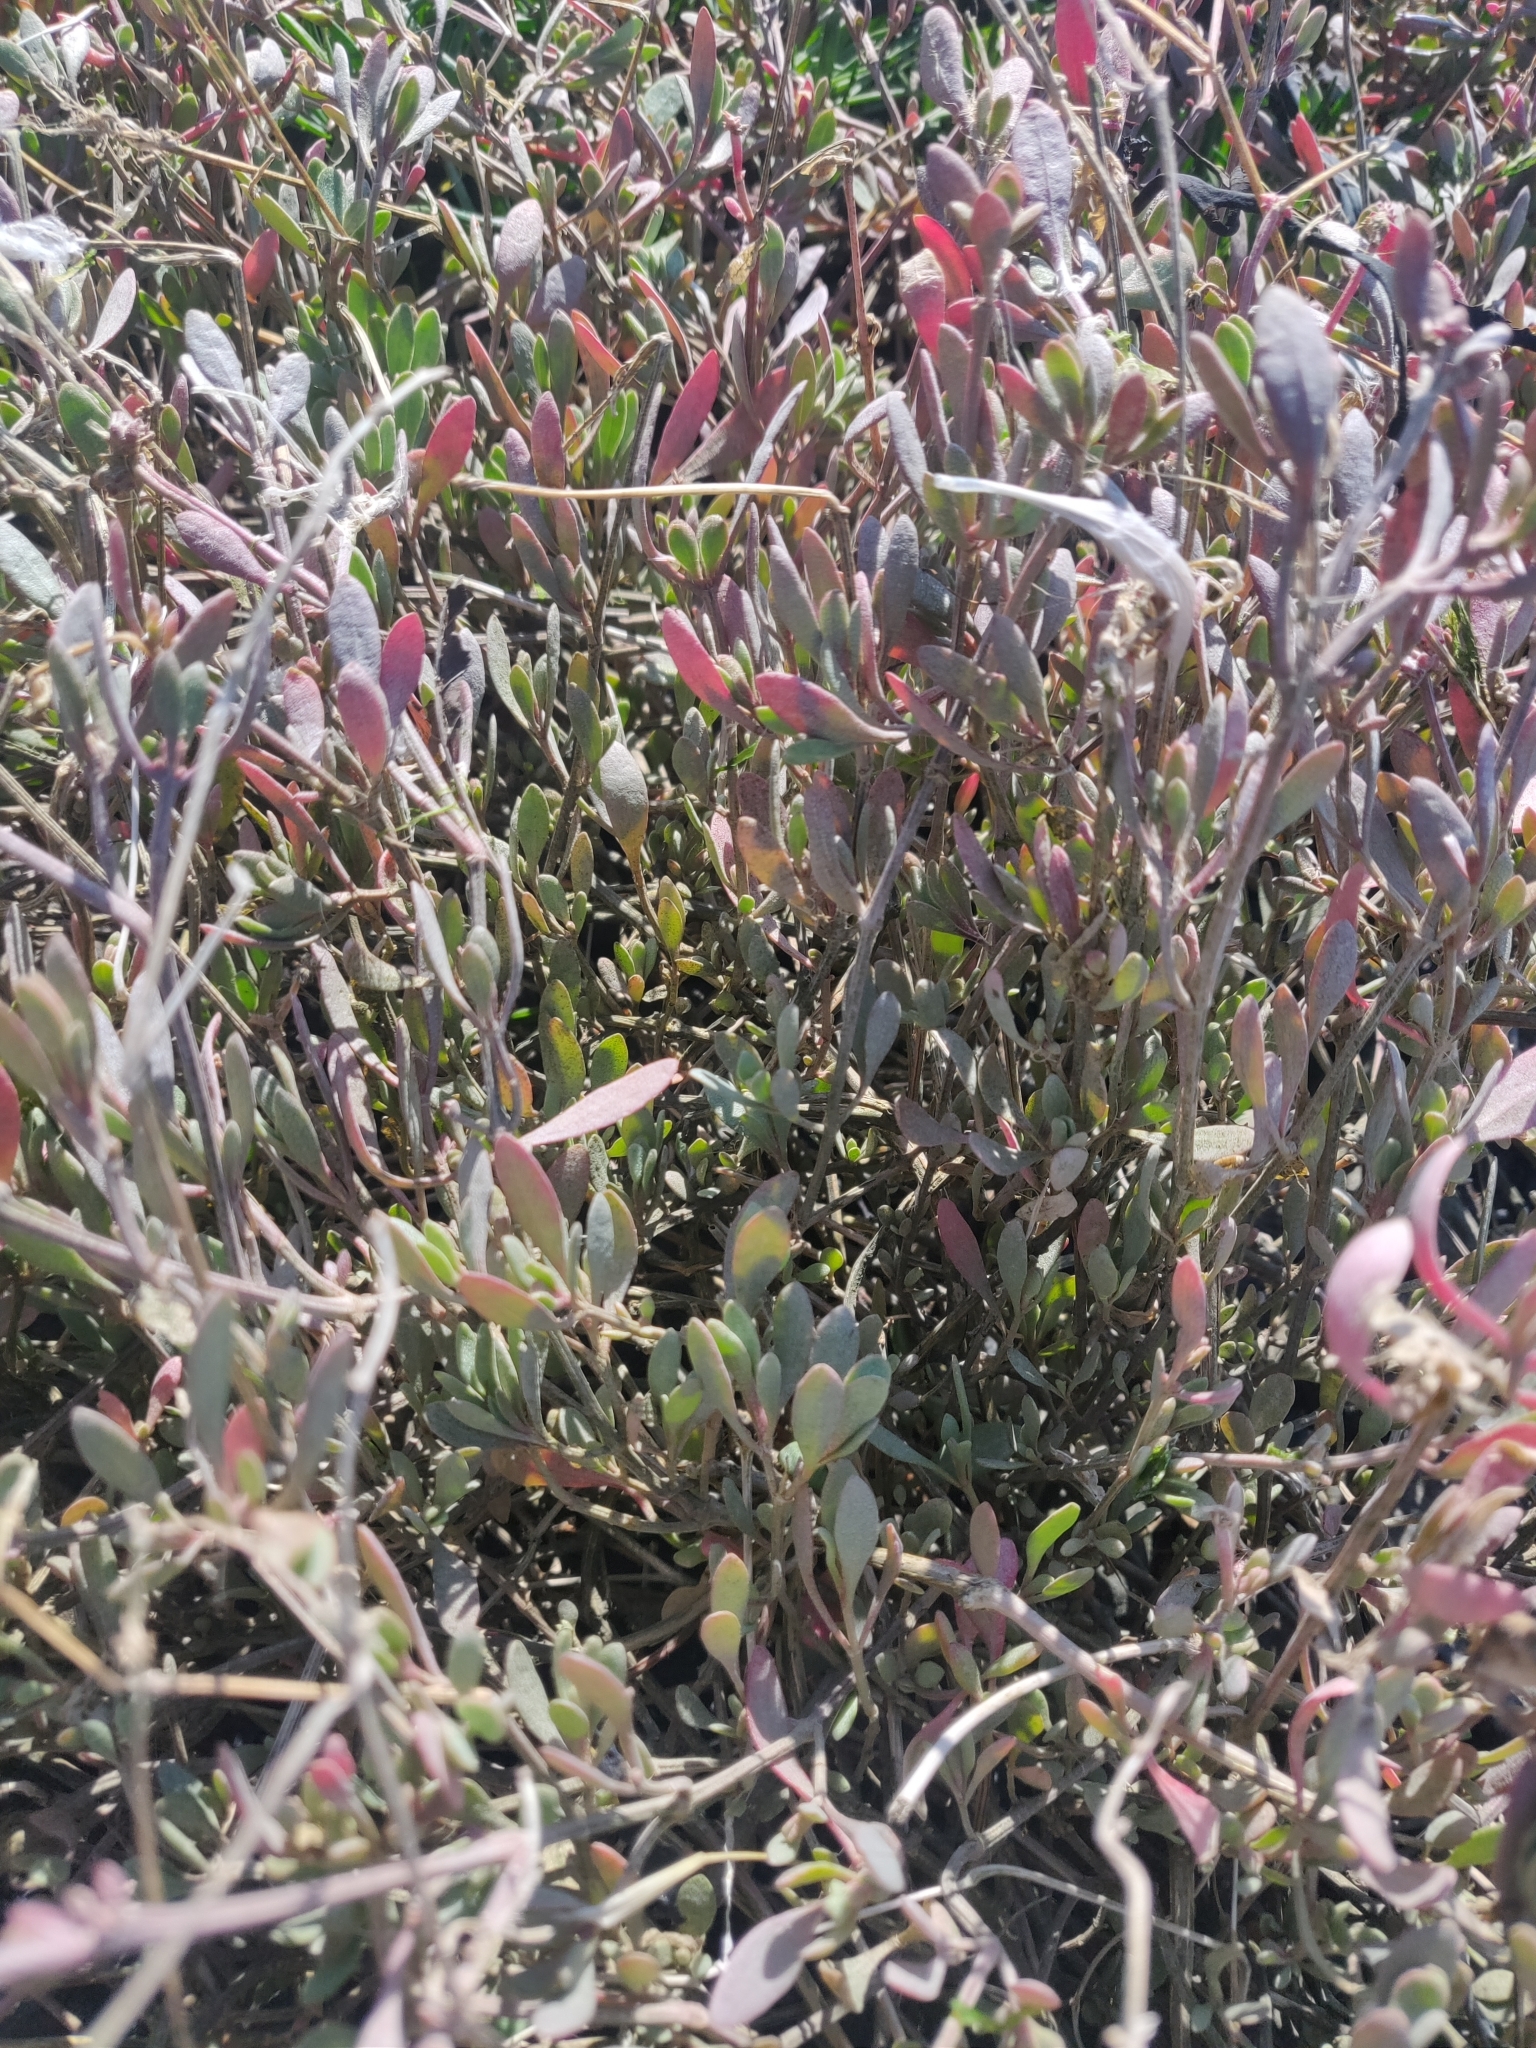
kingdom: Plantae
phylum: Tracheophyta
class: Magnoliopsida
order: Caryophyllales
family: Amaranthaceae
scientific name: Amaranthaceae
